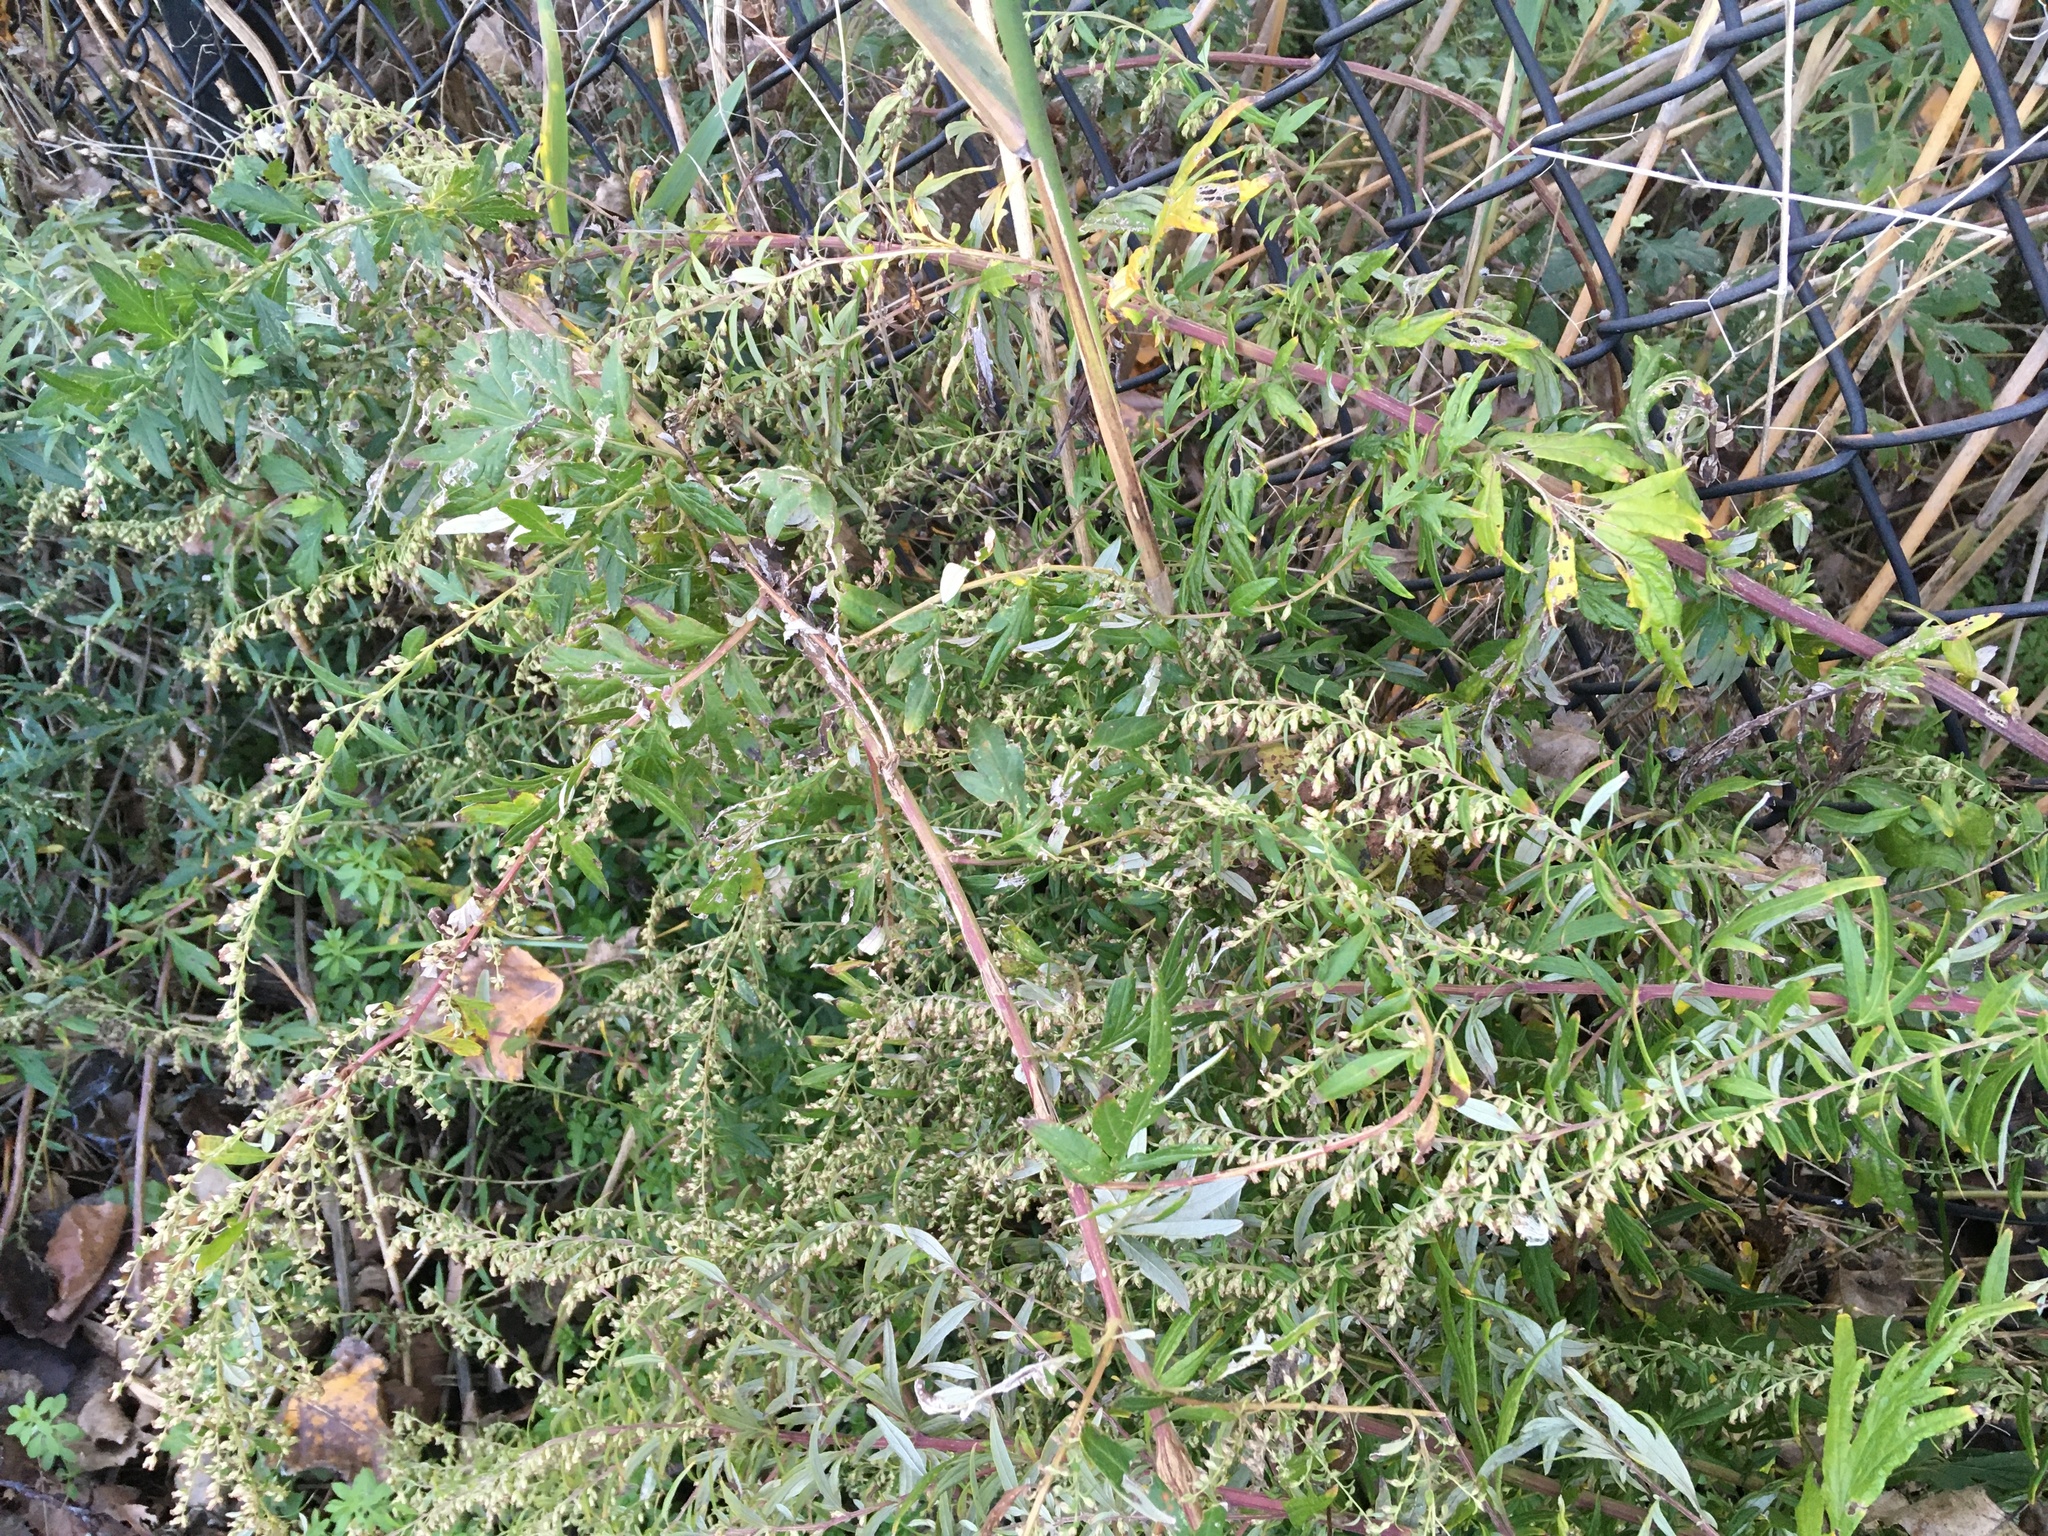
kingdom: Plantae
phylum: Tracheophyta
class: Magnoliopsida
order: Asterales
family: Asteraceae
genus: Artemisia
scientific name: Artemisia vulgaris
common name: Mugwort
